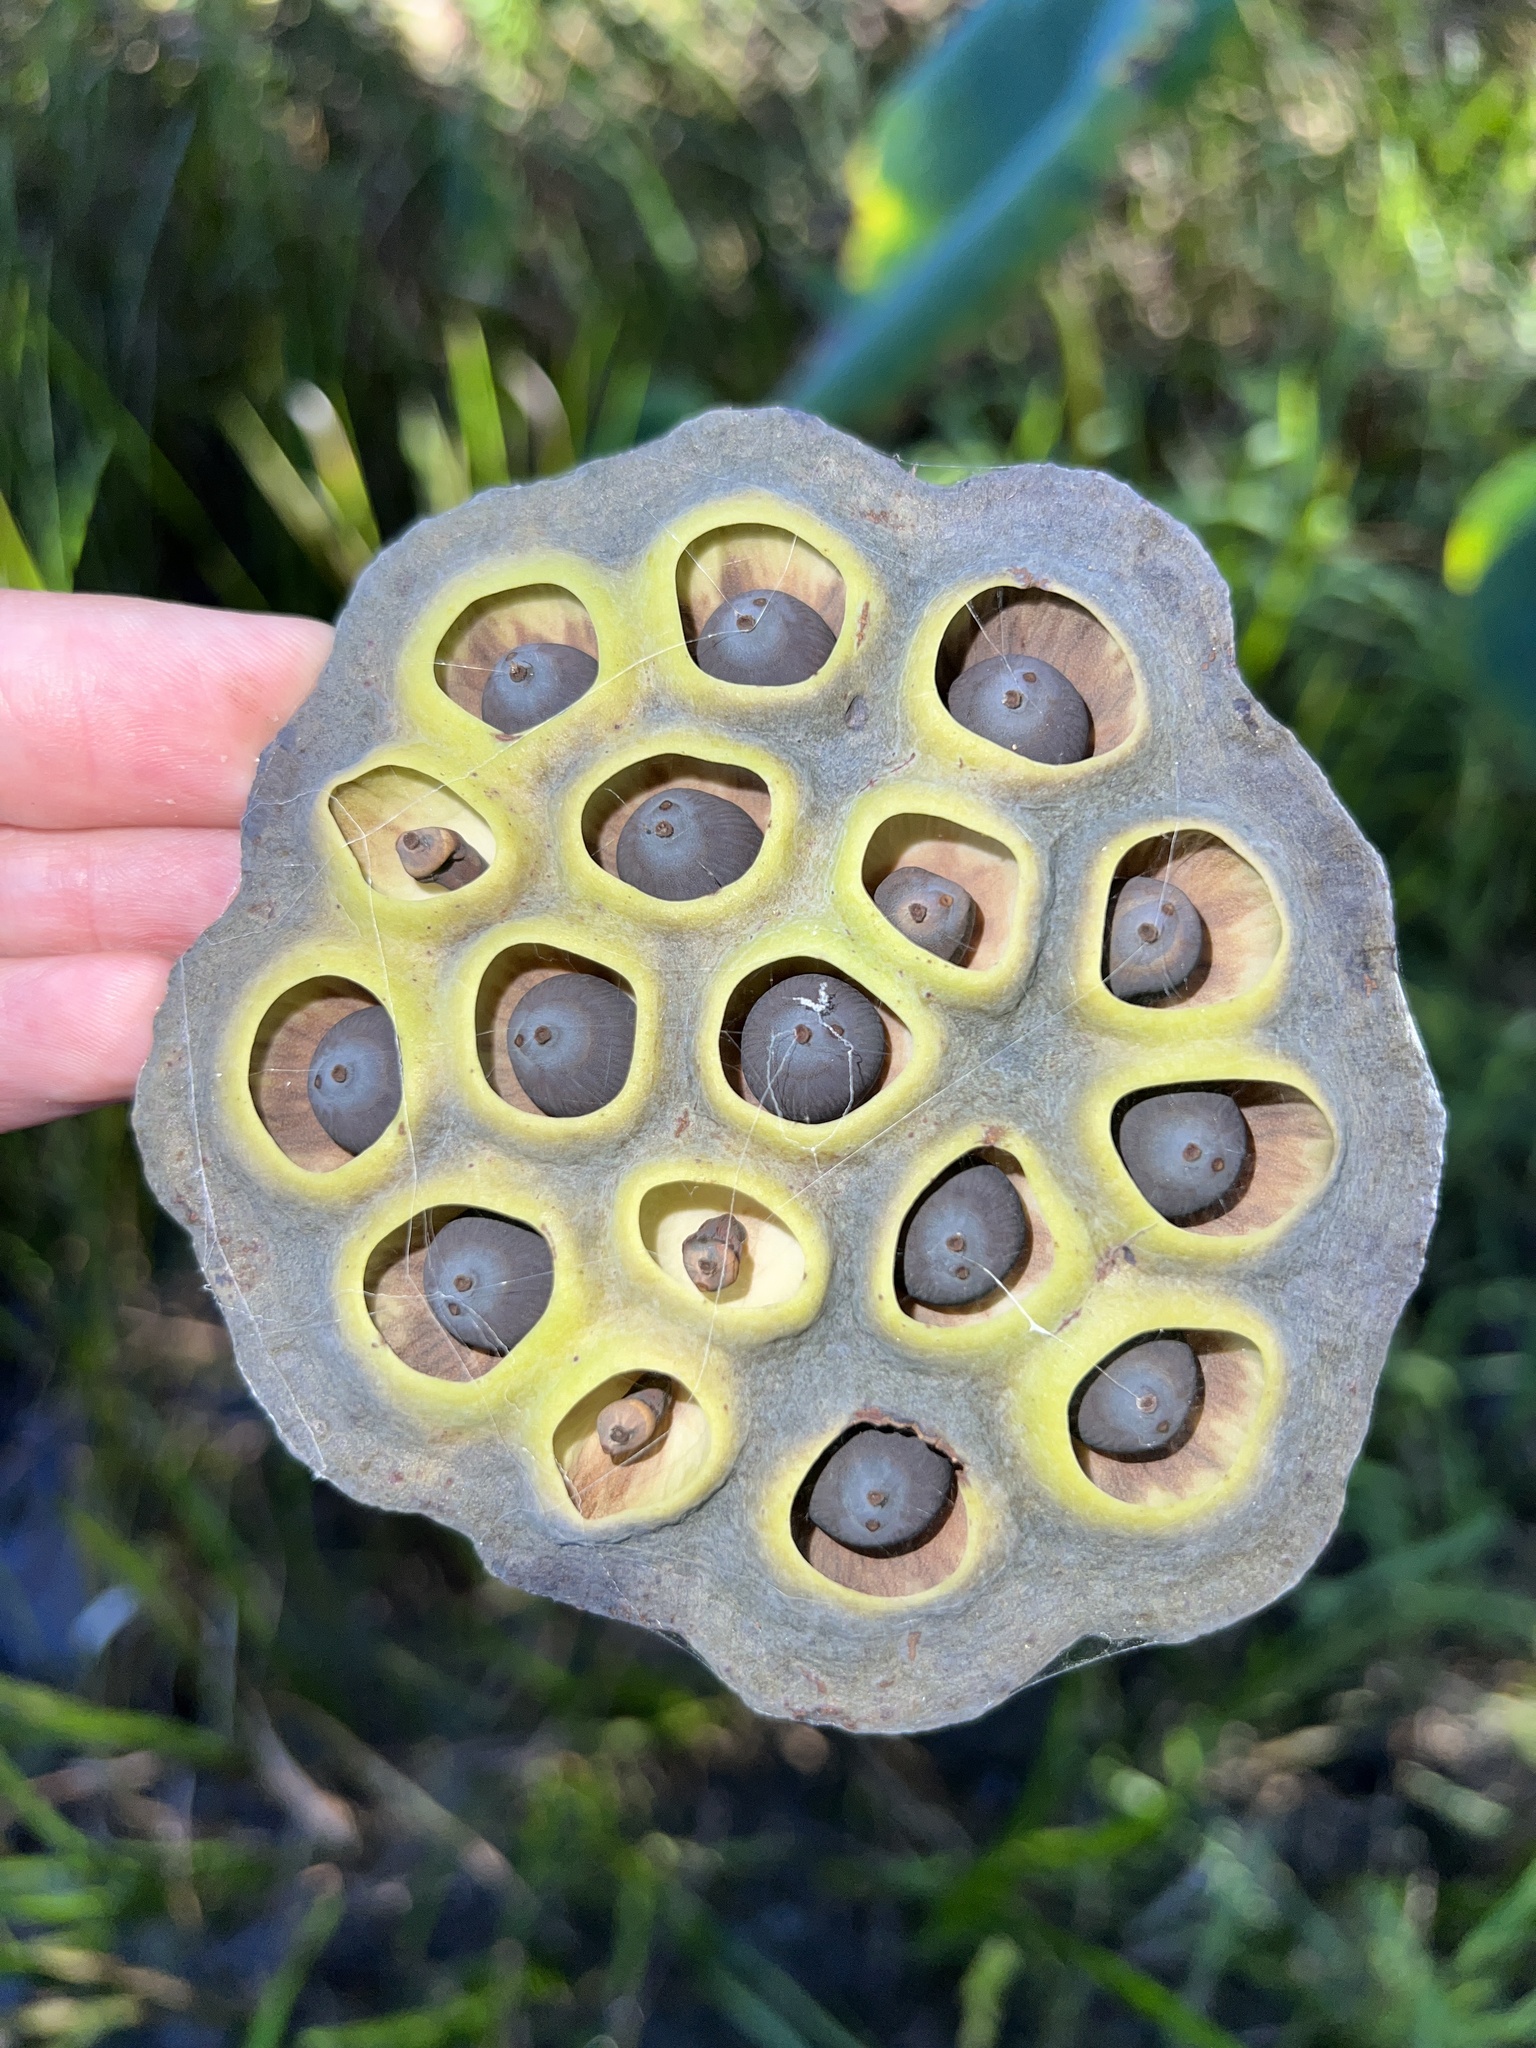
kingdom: Plantae
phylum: Tracheophyta
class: Magnoliopsida
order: Proteales
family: Nelumbonaceae
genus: Nelumbo
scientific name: Nelumbo lutea
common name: American lotus
